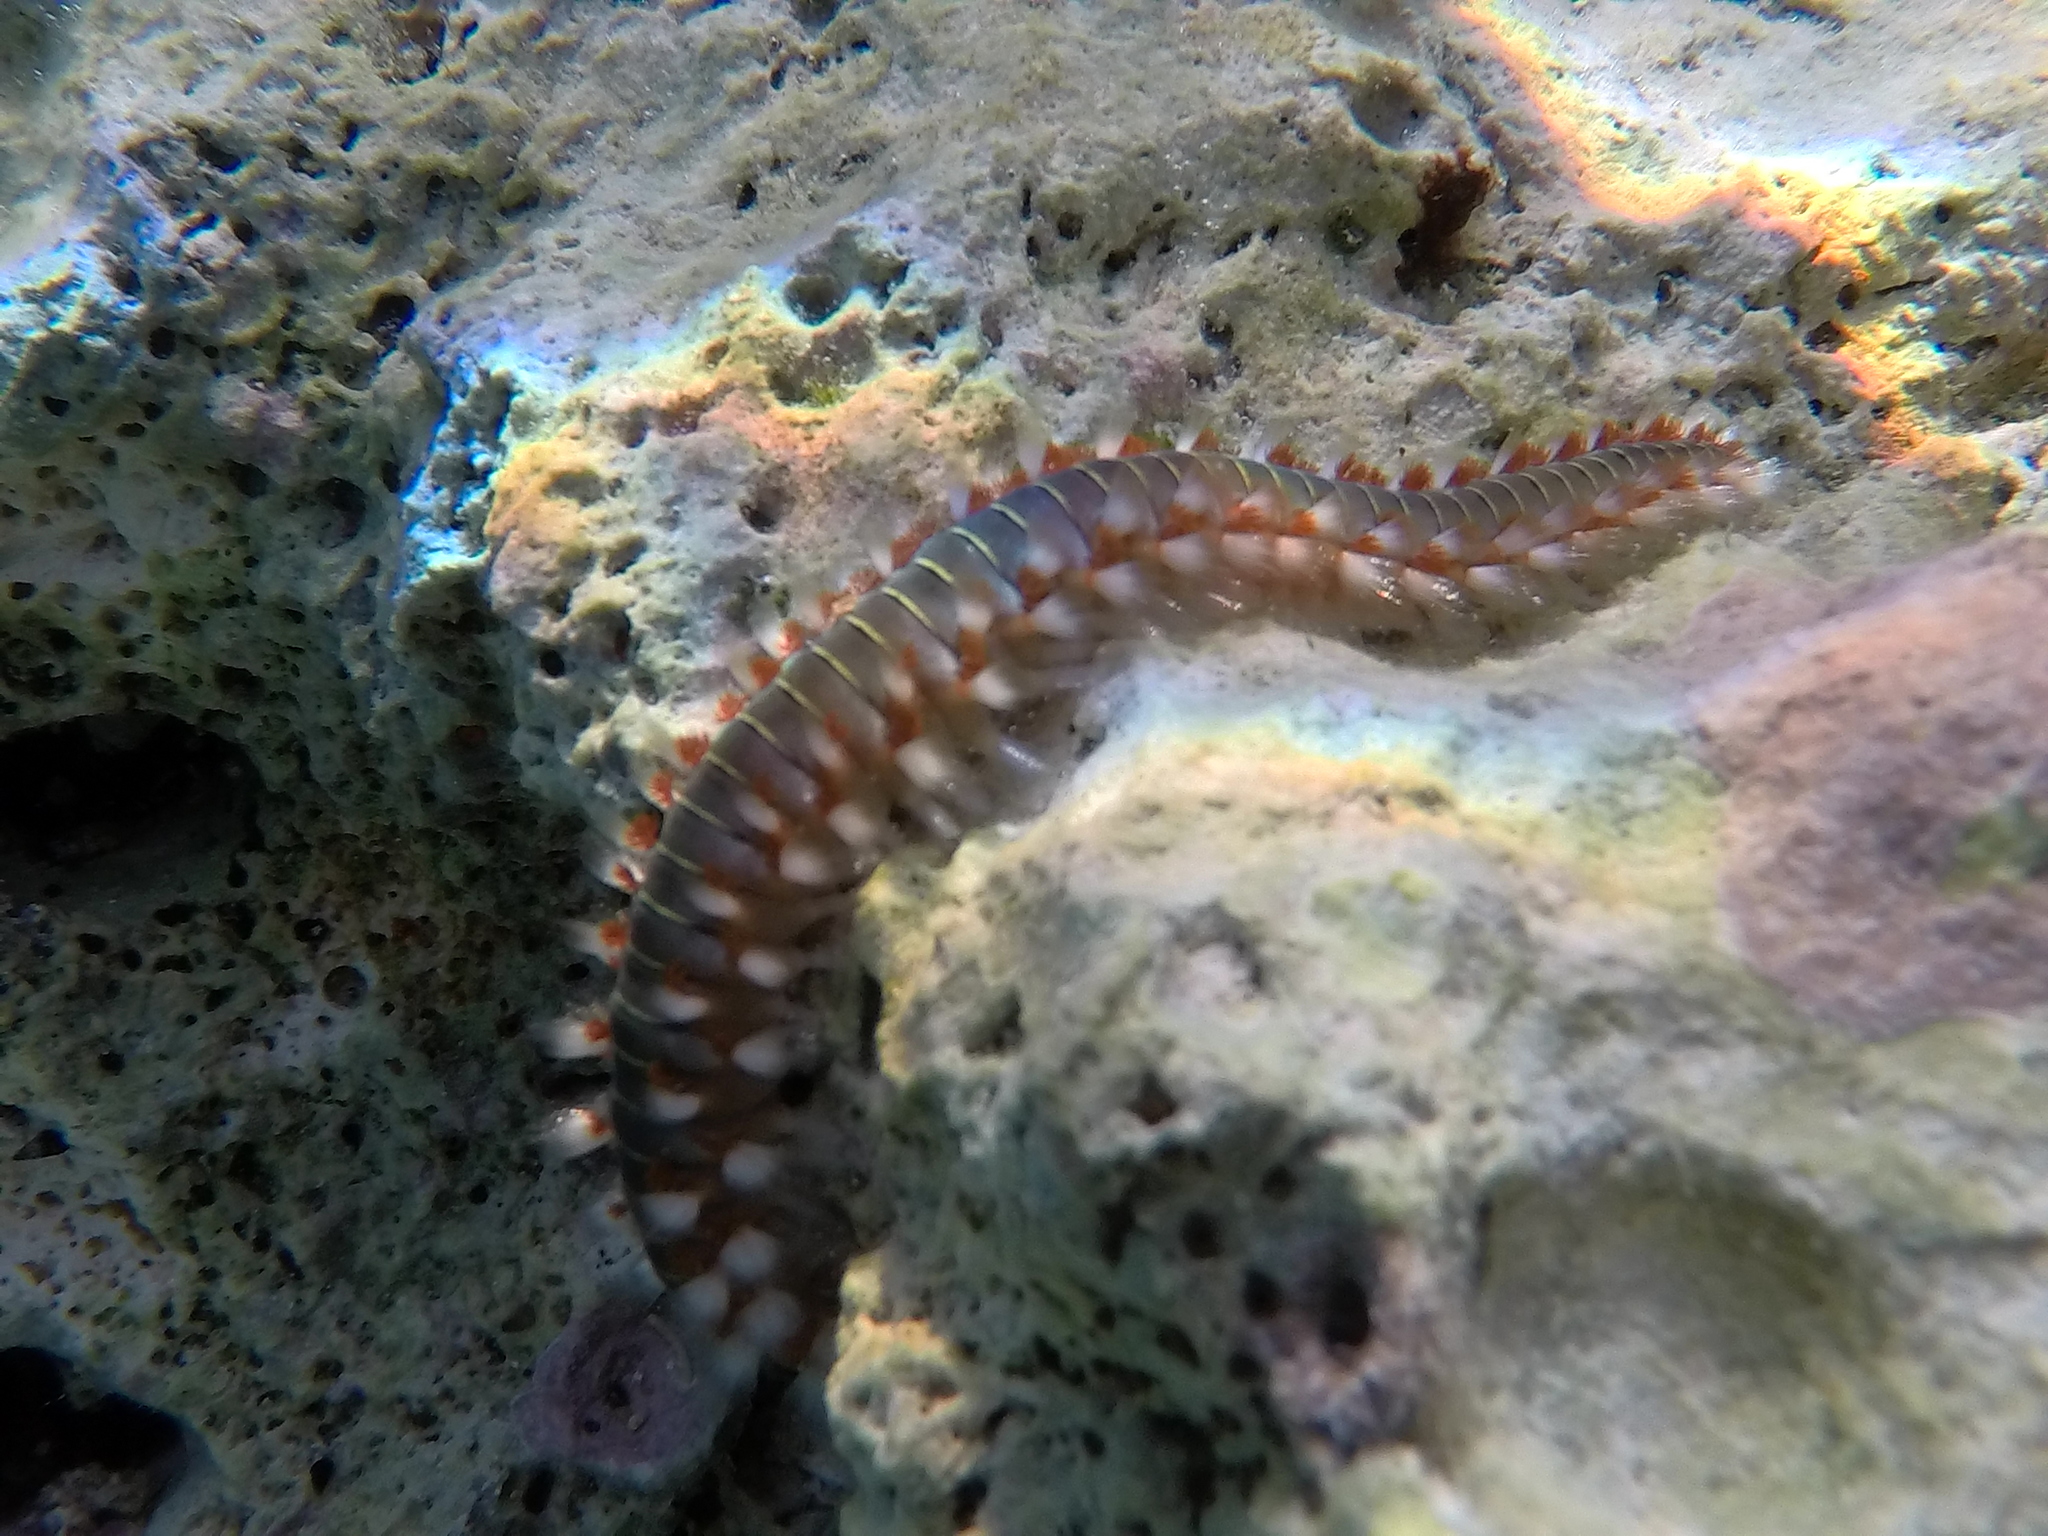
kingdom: Animalia
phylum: Annelida
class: Polychaeta
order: Amphinomida
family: Amphinomidae
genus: Hermodice
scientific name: Hermodice carunculata
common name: Bearded fireworm
